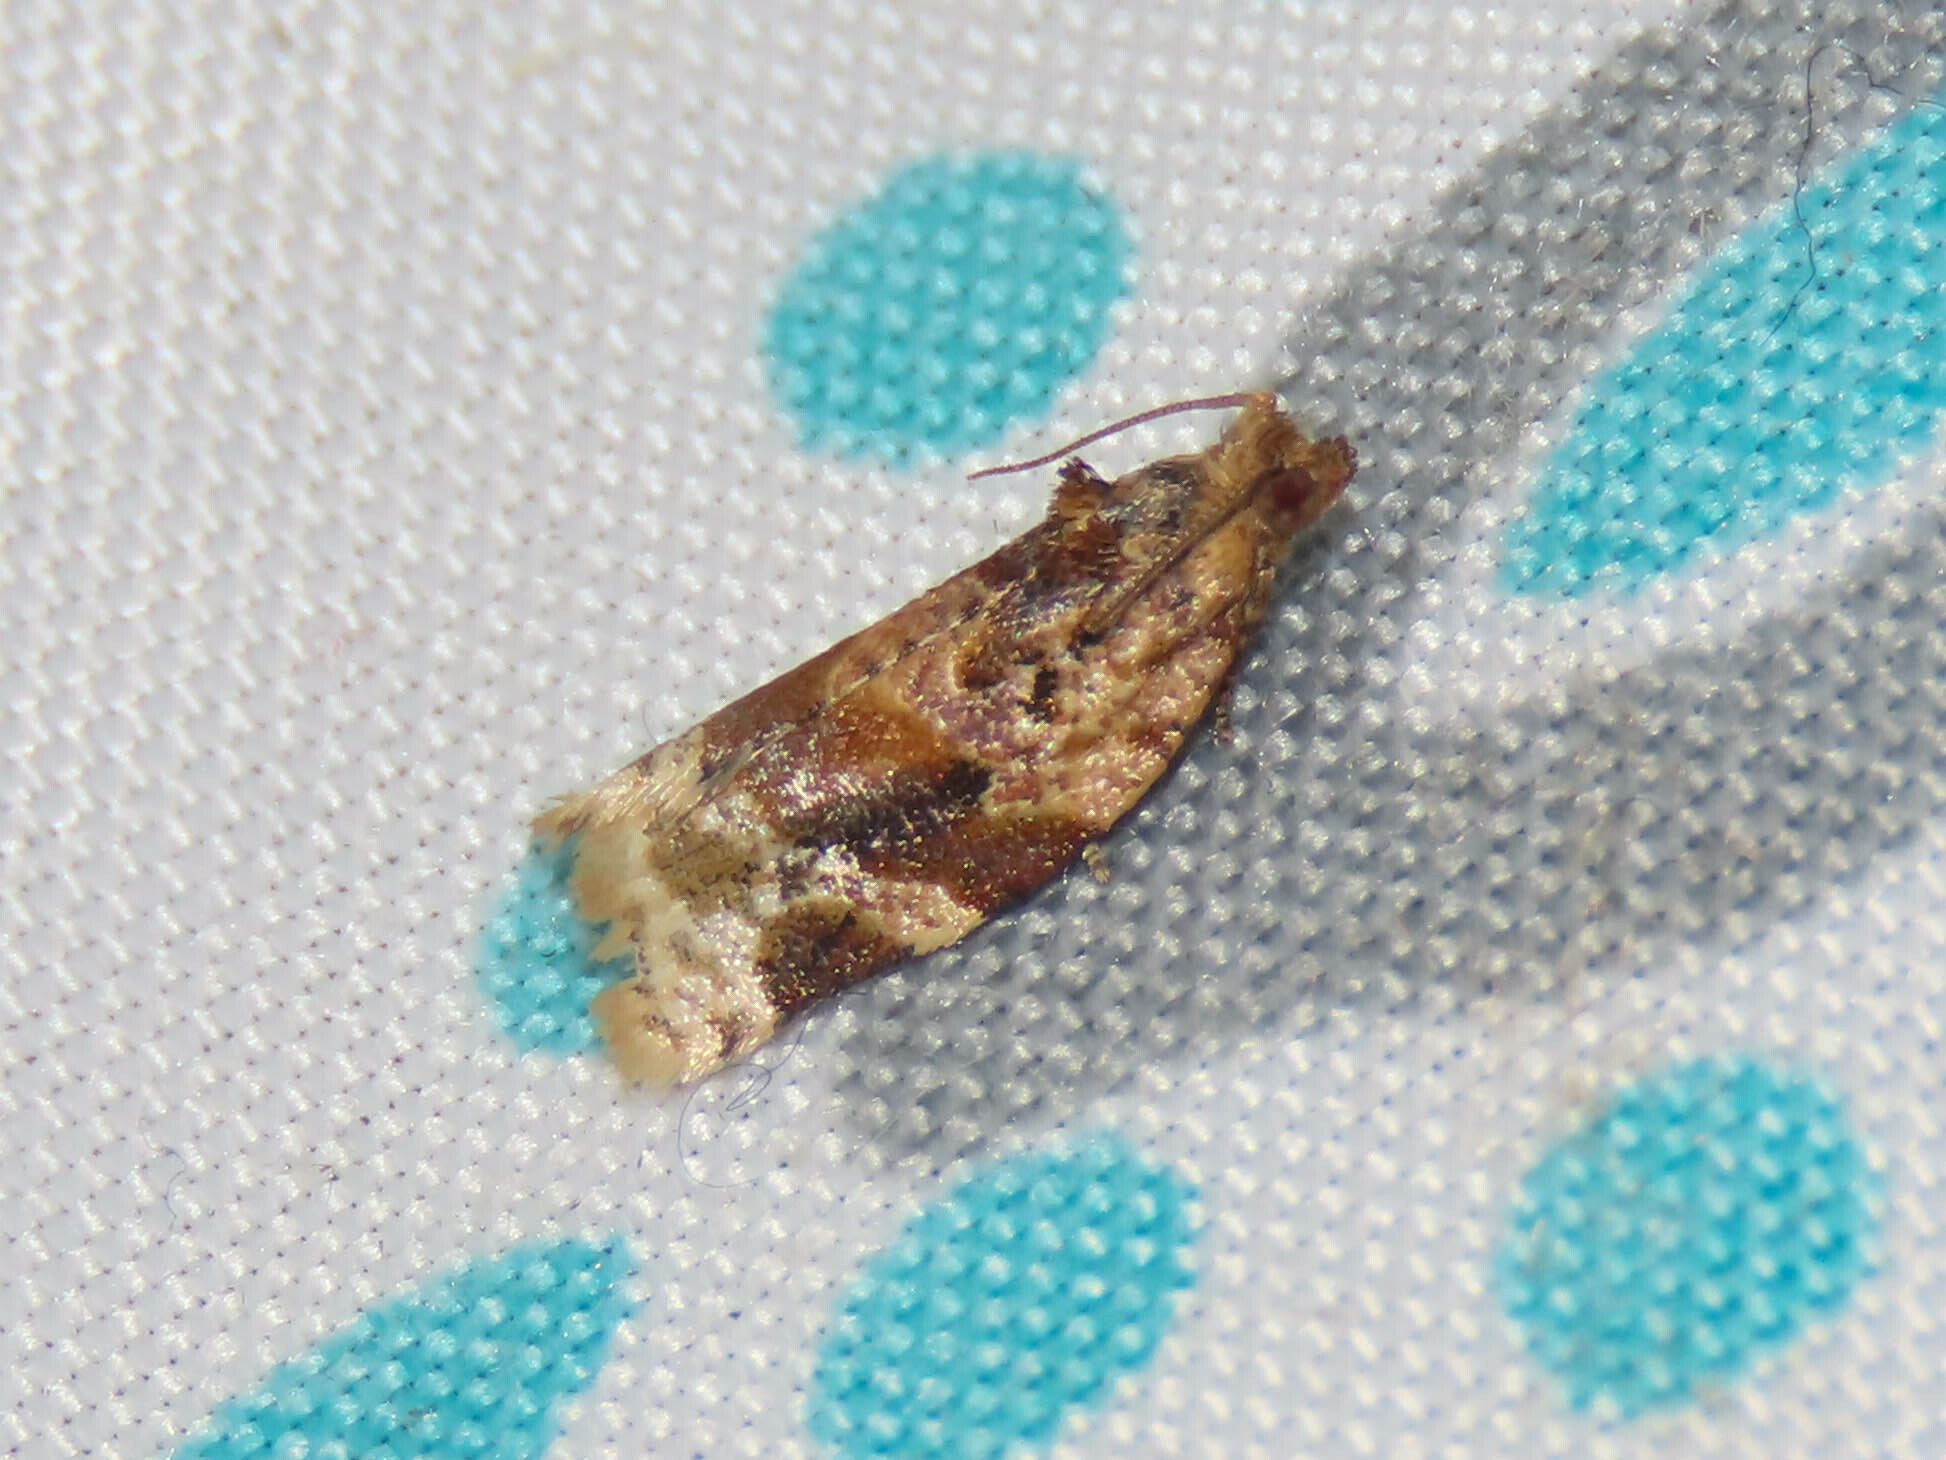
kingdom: Animalia
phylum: Arthropoda
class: Insecta
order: Lepidoptera
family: Tortricidae
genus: Argyrotaenia
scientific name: Argyrotaenia velutinana
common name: Red-banded leafroller moth
